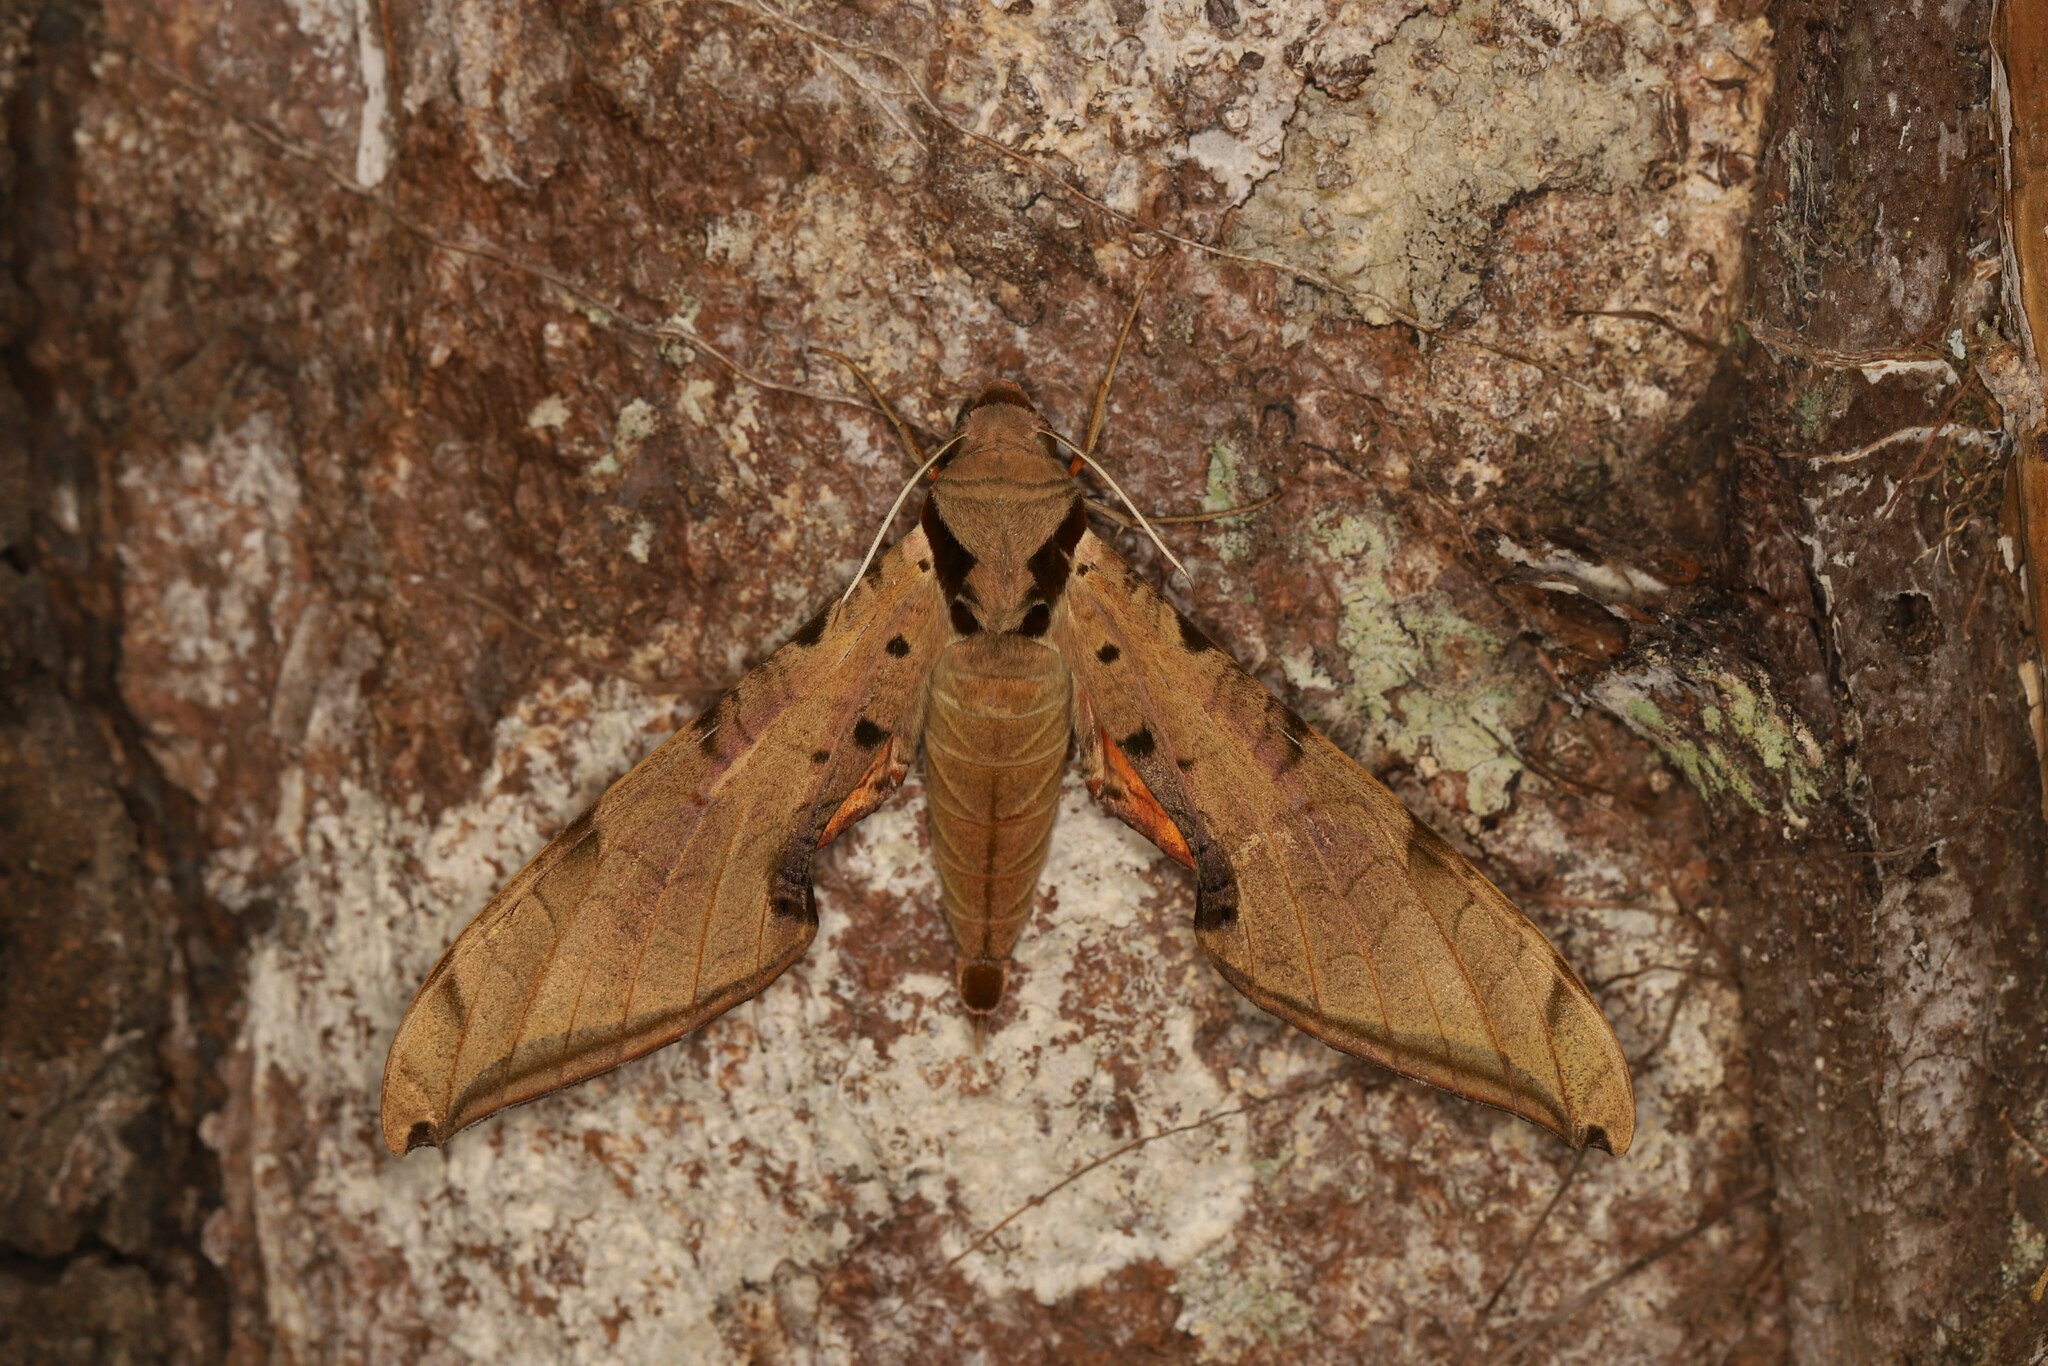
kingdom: Animalia
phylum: Arthropoda
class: Insecta
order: Lepidoptera
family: Sphingidae
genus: Protambulyx
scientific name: Protambulyx strigilis
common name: Streaked sphinx
